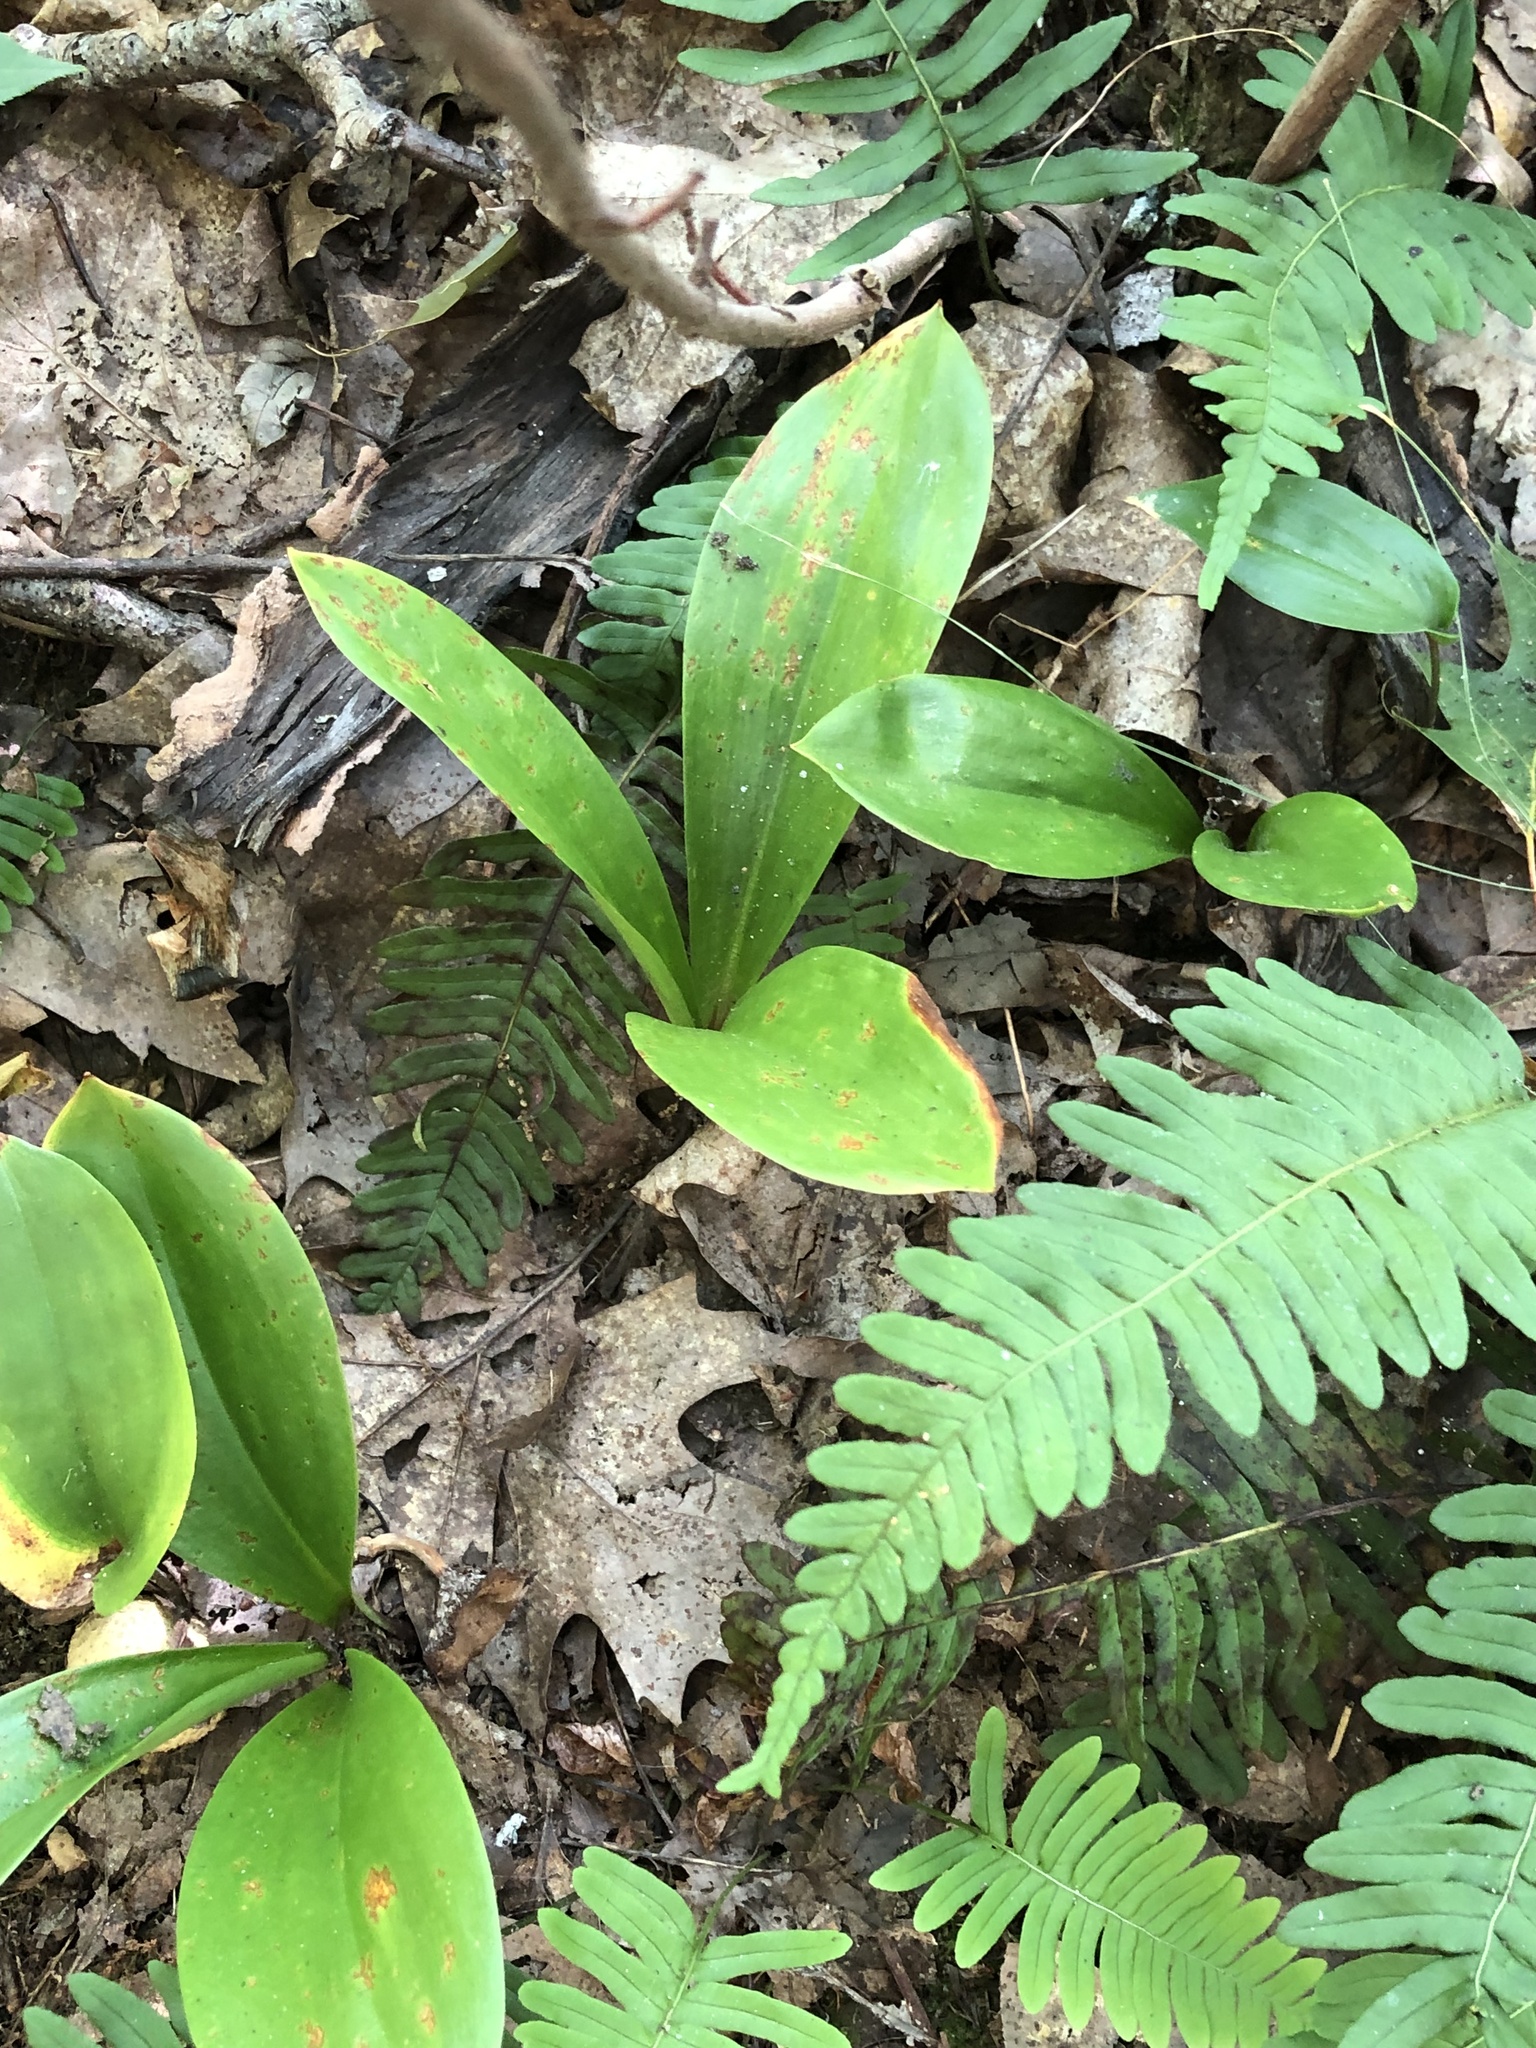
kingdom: Plantae
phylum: Tracheophyta
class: Liliopsida
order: Liliales
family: Liliaceae
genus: Clintonia
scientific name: Clintonia borealis
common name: Yellow clintonia
